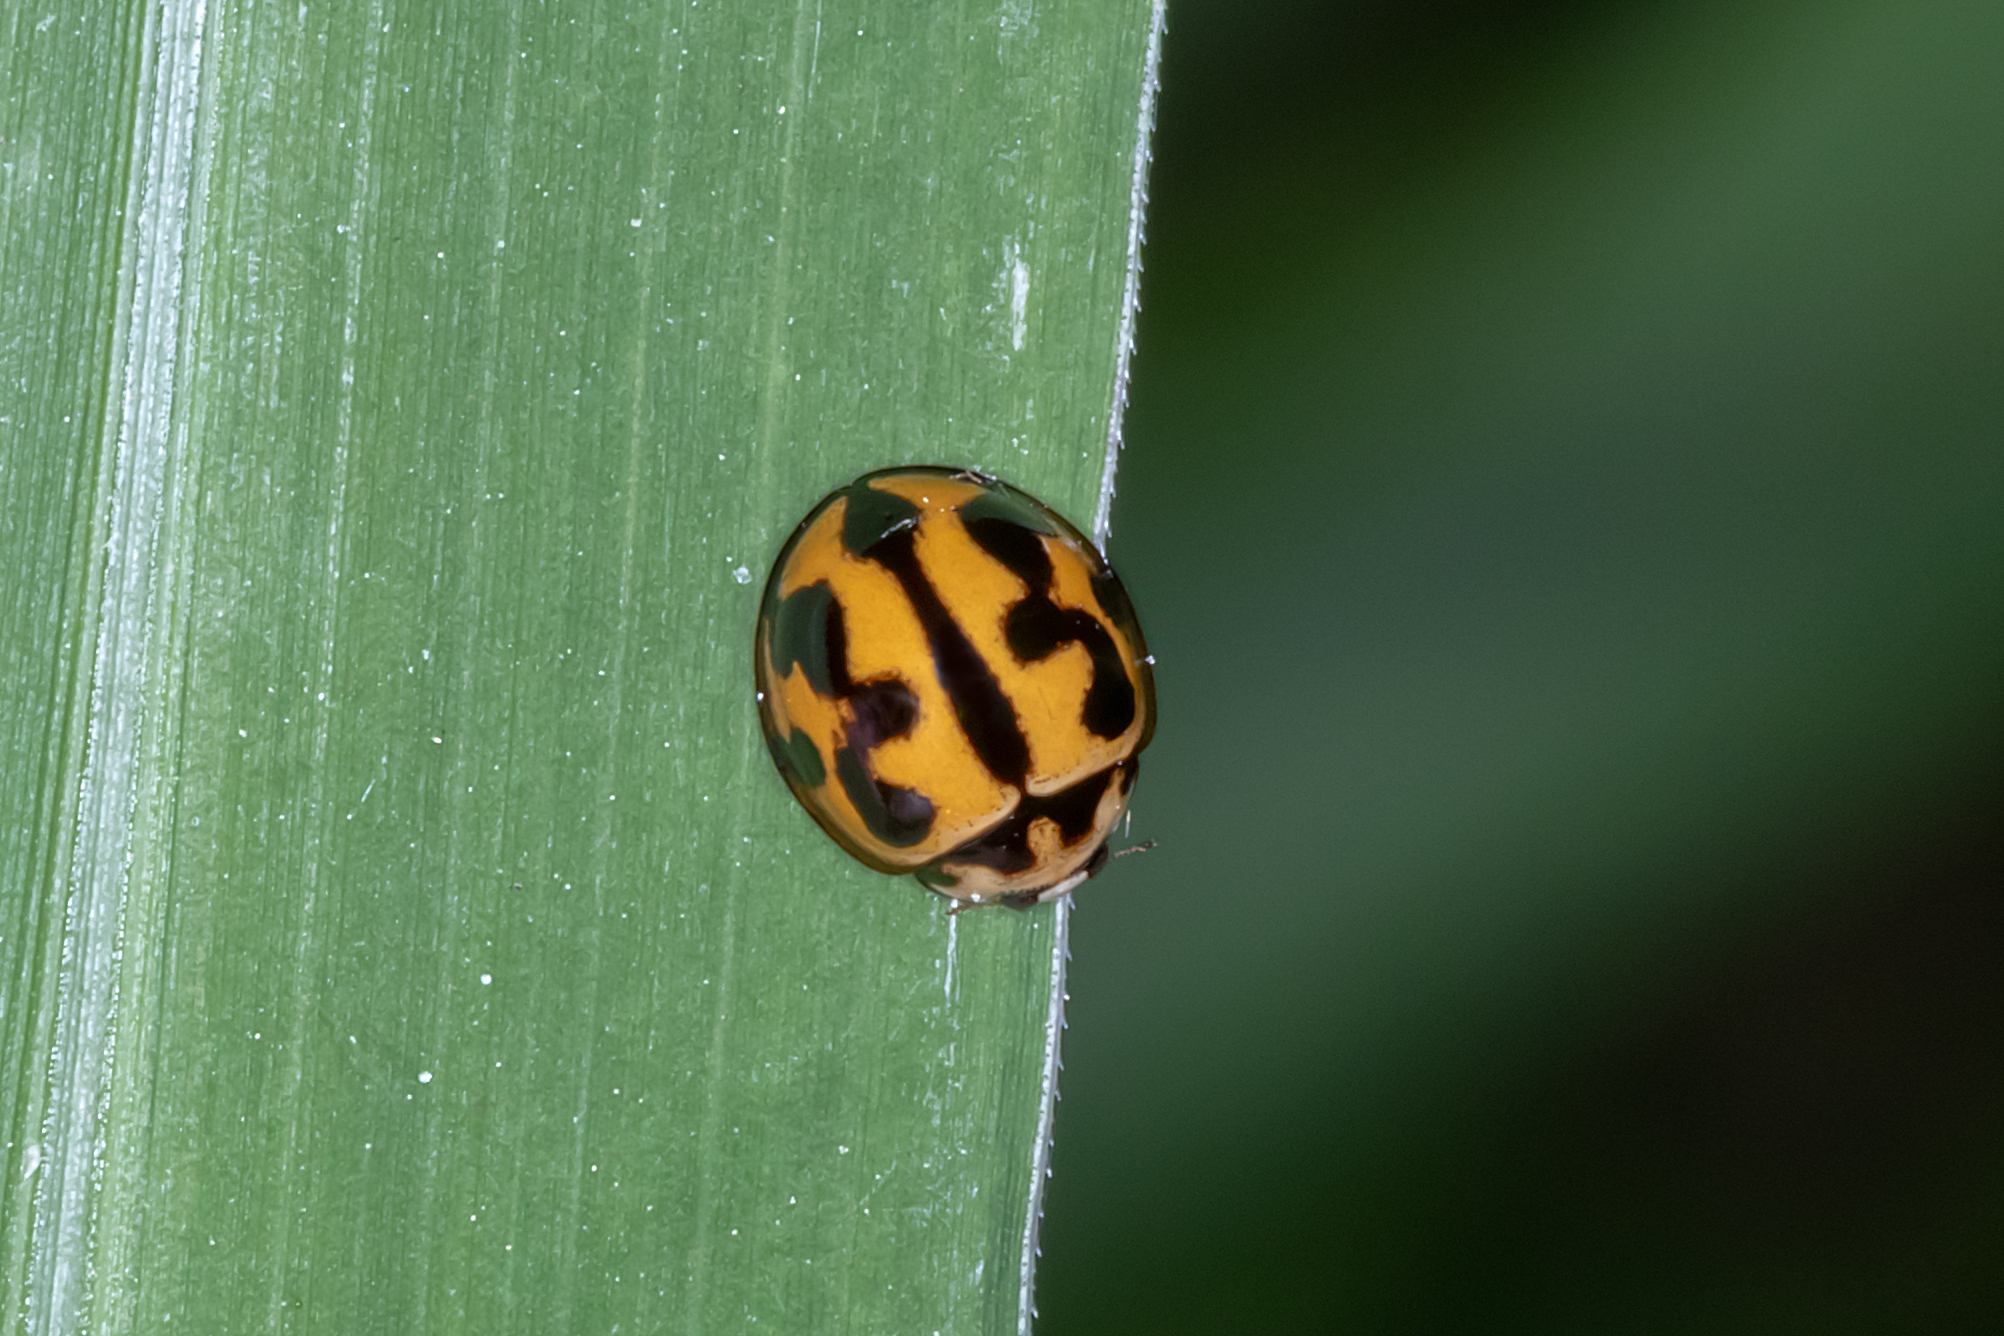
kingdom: Animalia
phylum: Arthropoda
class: Insecta
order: Coleoptera
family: Coccinellidae
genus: Coelophora
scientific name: Coelophora inaequalis
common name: Common australian lady beetle
